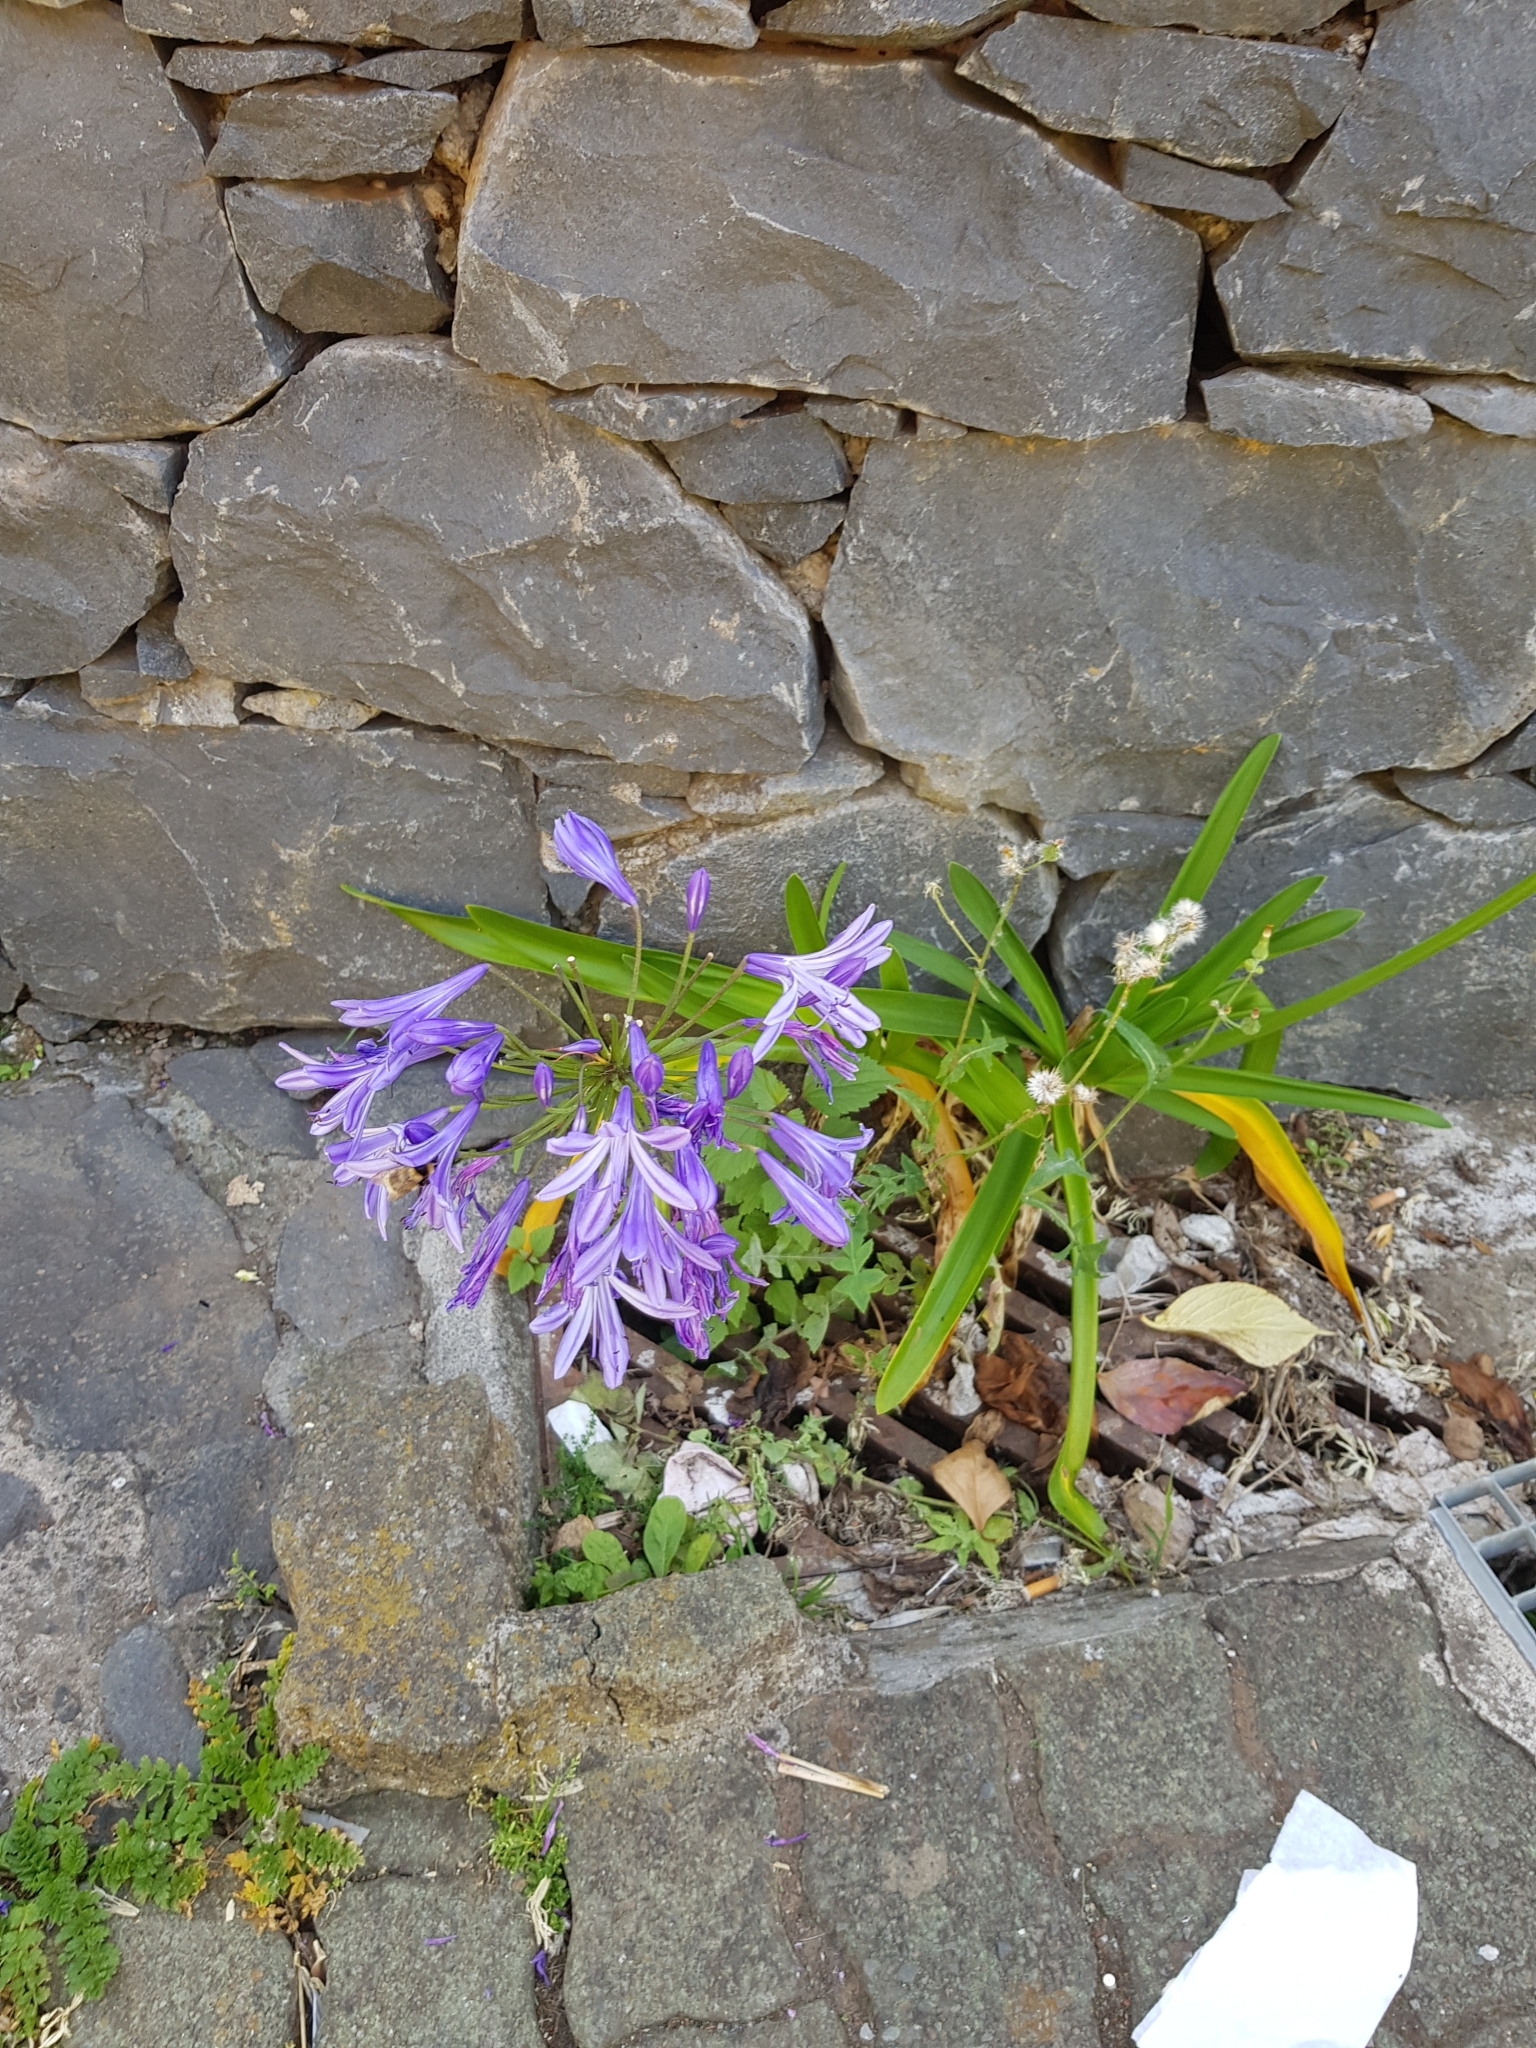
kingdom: Plantae
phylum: Tracheophyta
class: Liliopsida
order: Asparagales
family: Amaryllidaceae
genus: Agapanthus
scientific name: Agapanthus praecox
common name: African-lily
